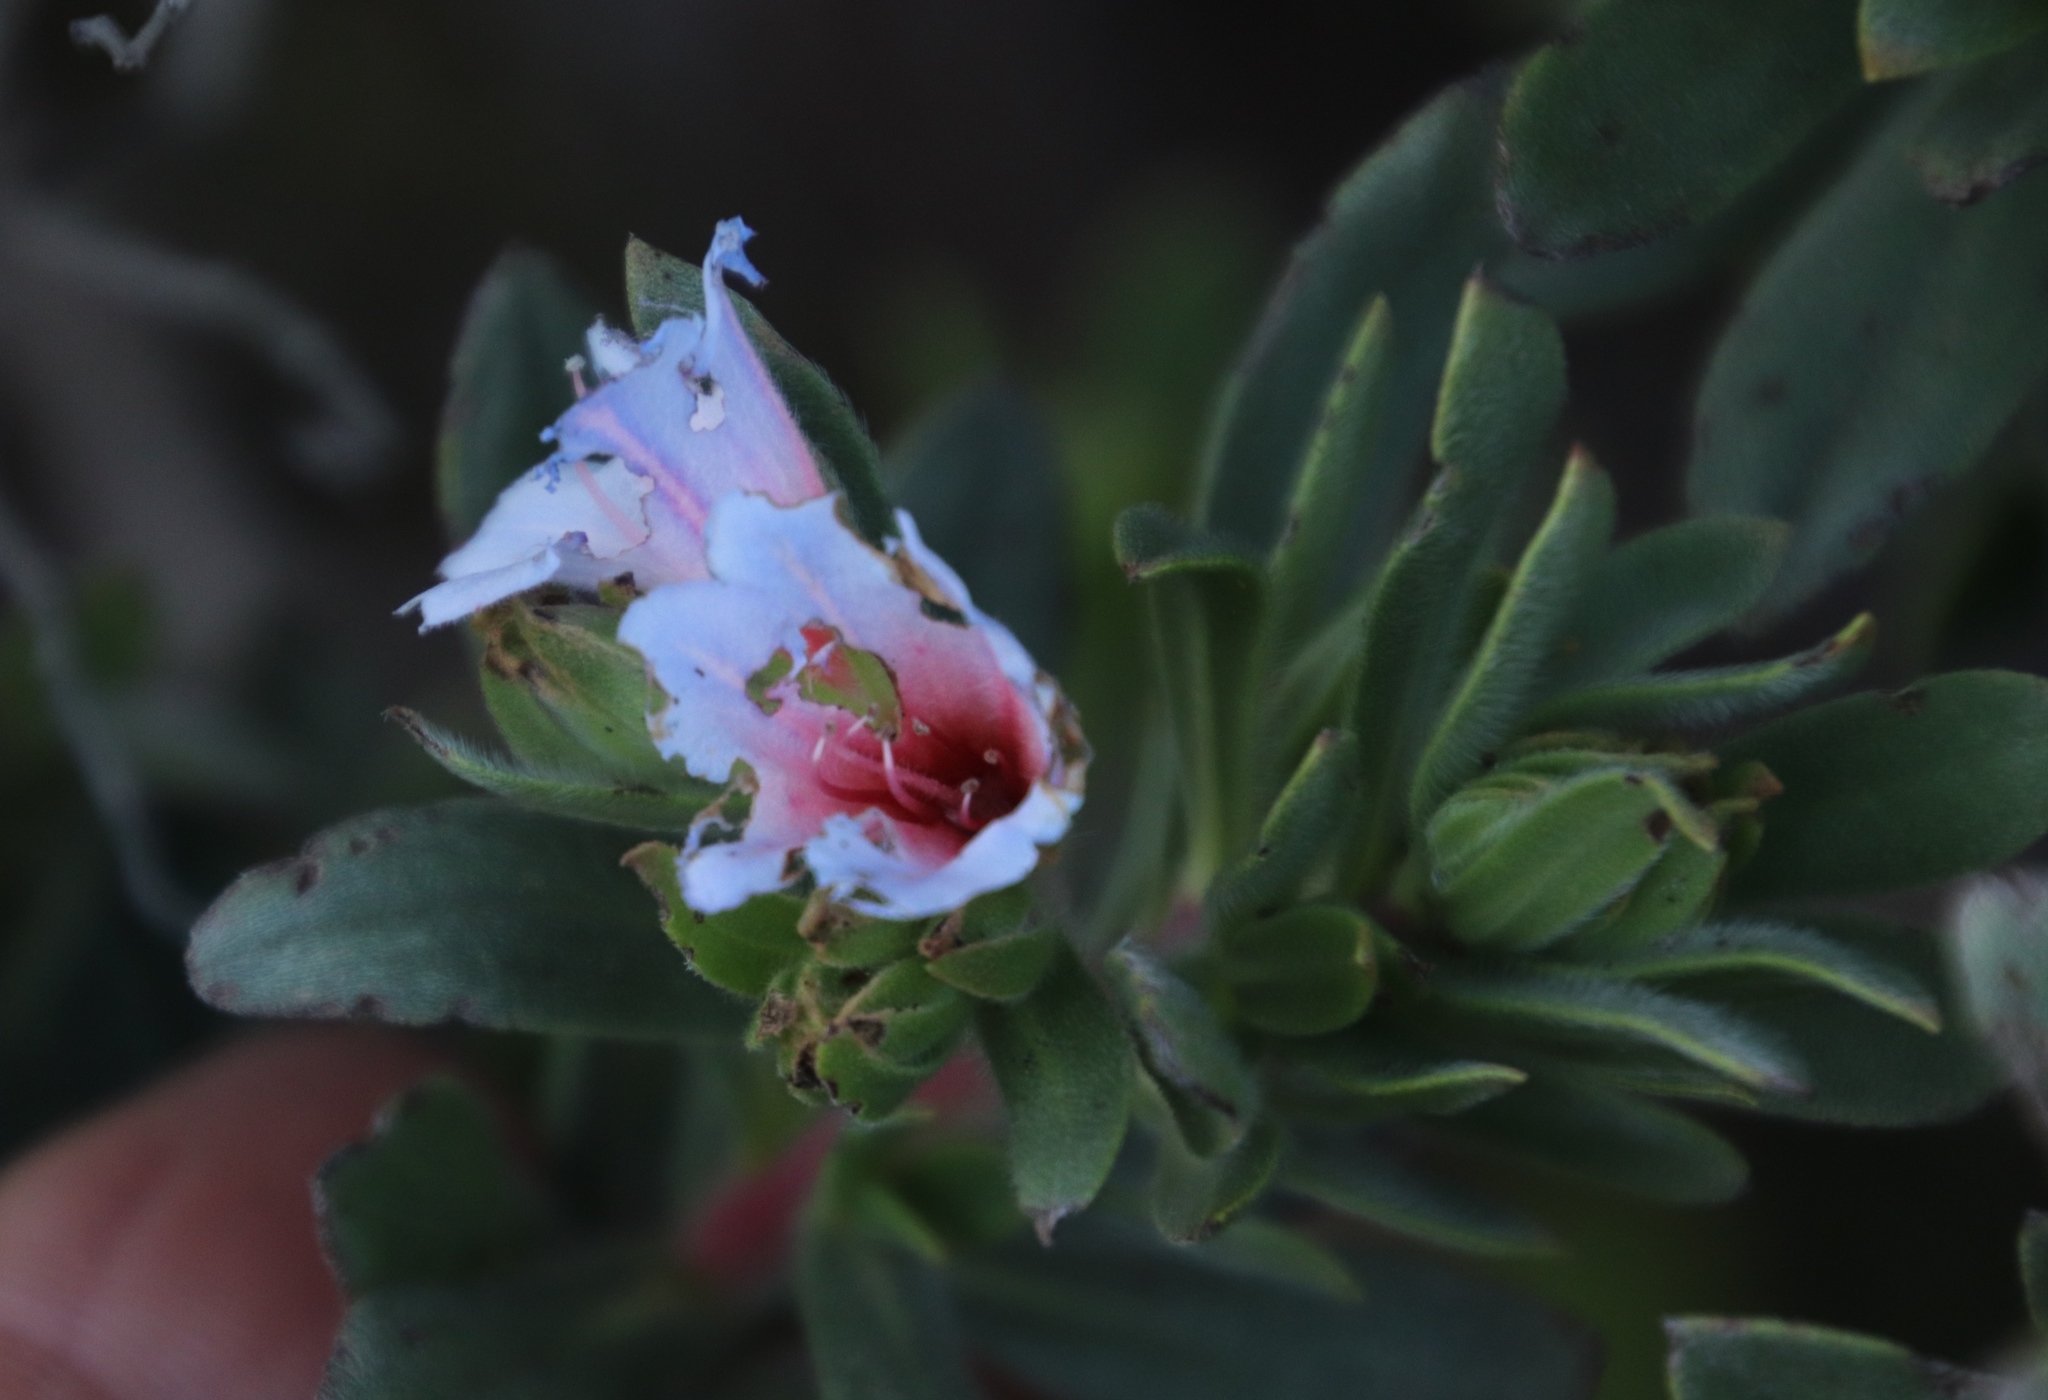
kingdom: Plantae
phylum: Tracheophyta
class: Magnoliopsida
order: Boraginales
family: Boraginaceae
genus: Lobostemon
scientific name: Lobostemon fruticosus
